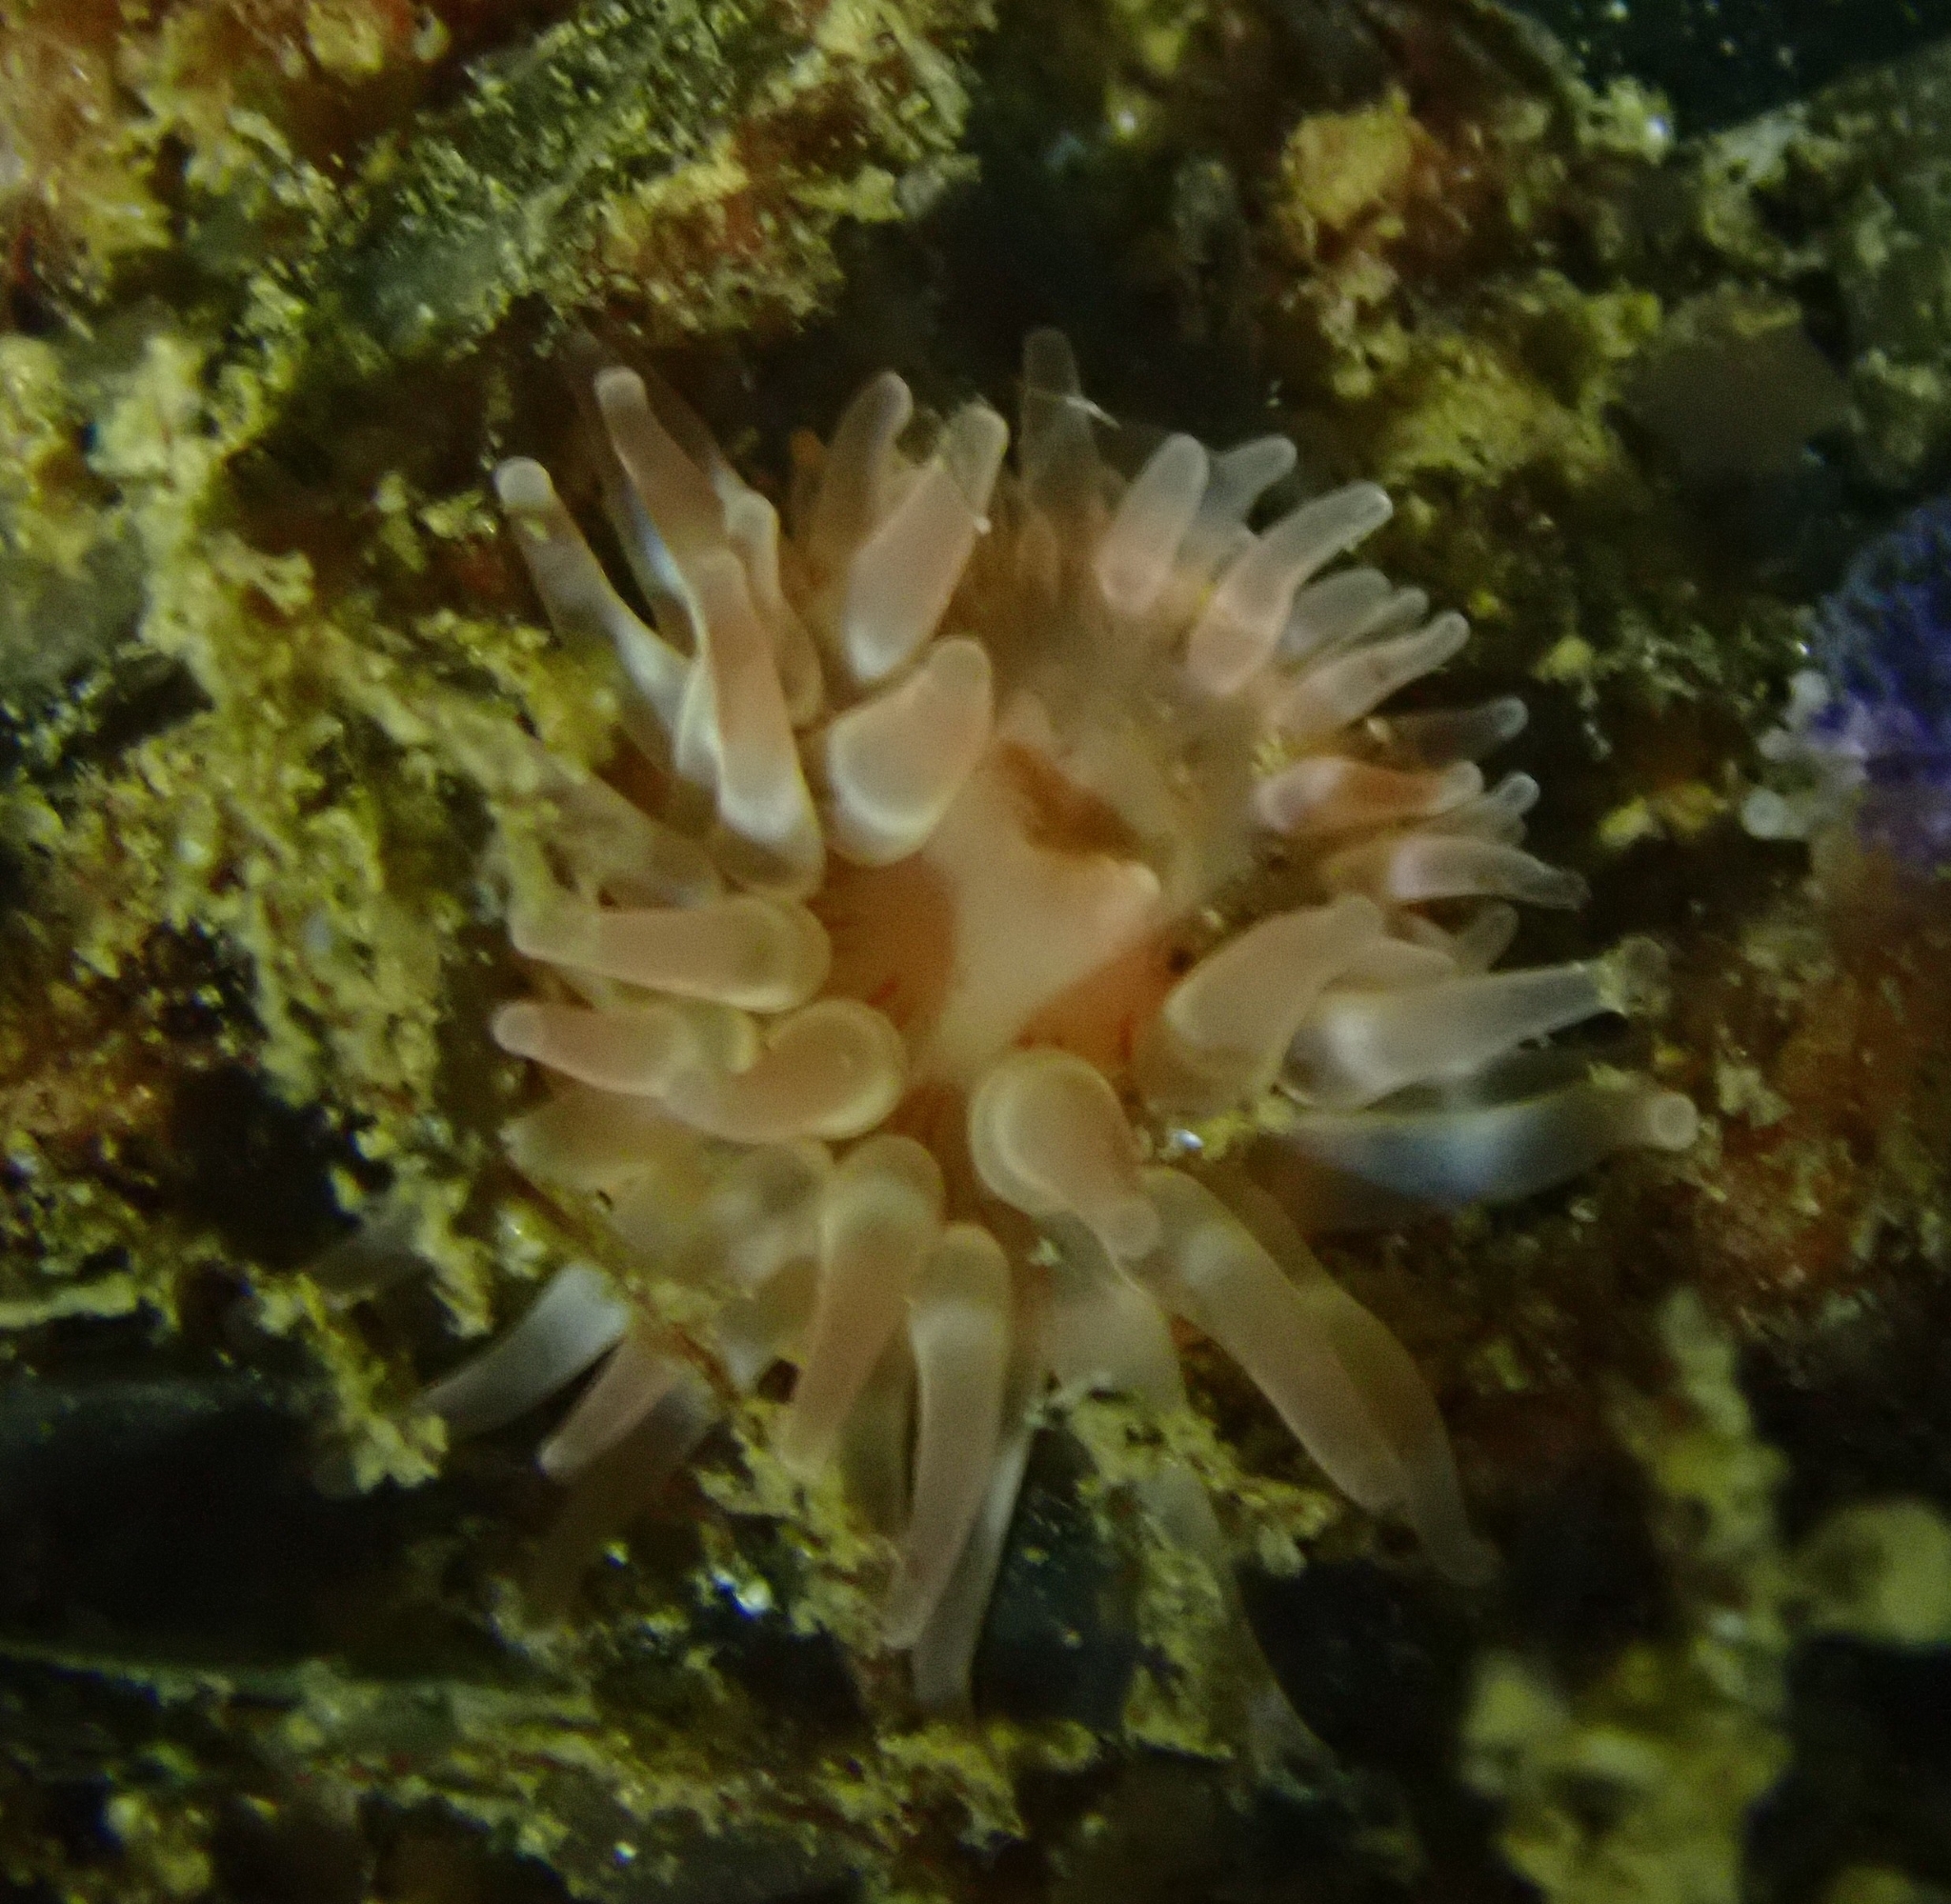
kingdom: Animalia
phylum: Cnidaria
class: Anthozoa
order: Actiniaria
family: Actiniidae
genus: Urticina
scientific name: Urticina felina
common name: Dahlia anemone
